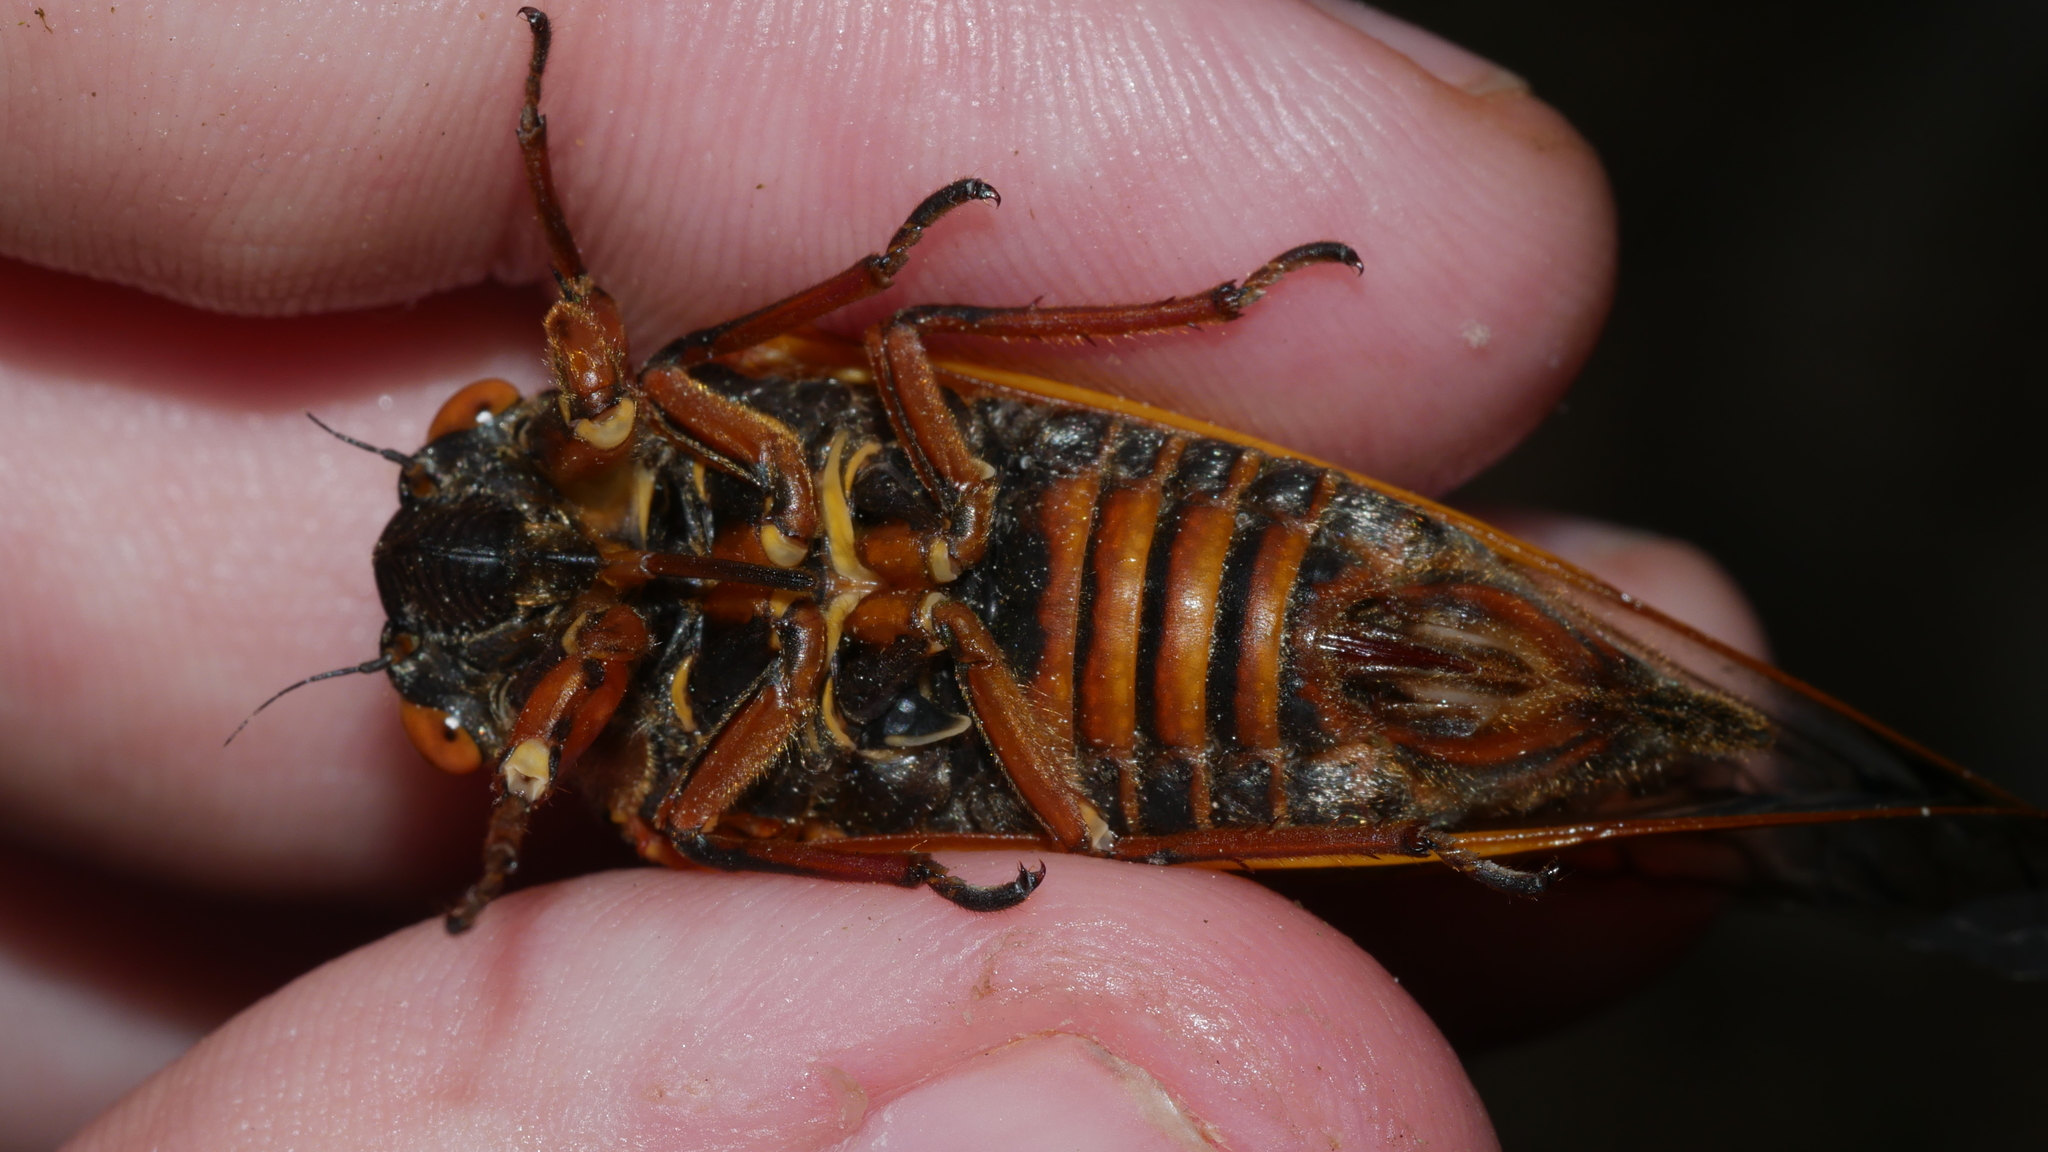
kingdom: Animalia
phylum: Arthropoda
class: Insecta
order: Hemiptera
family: Cicadidae
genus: Magicicada
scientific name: Magicicada septendecim
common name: Periodical cicada
